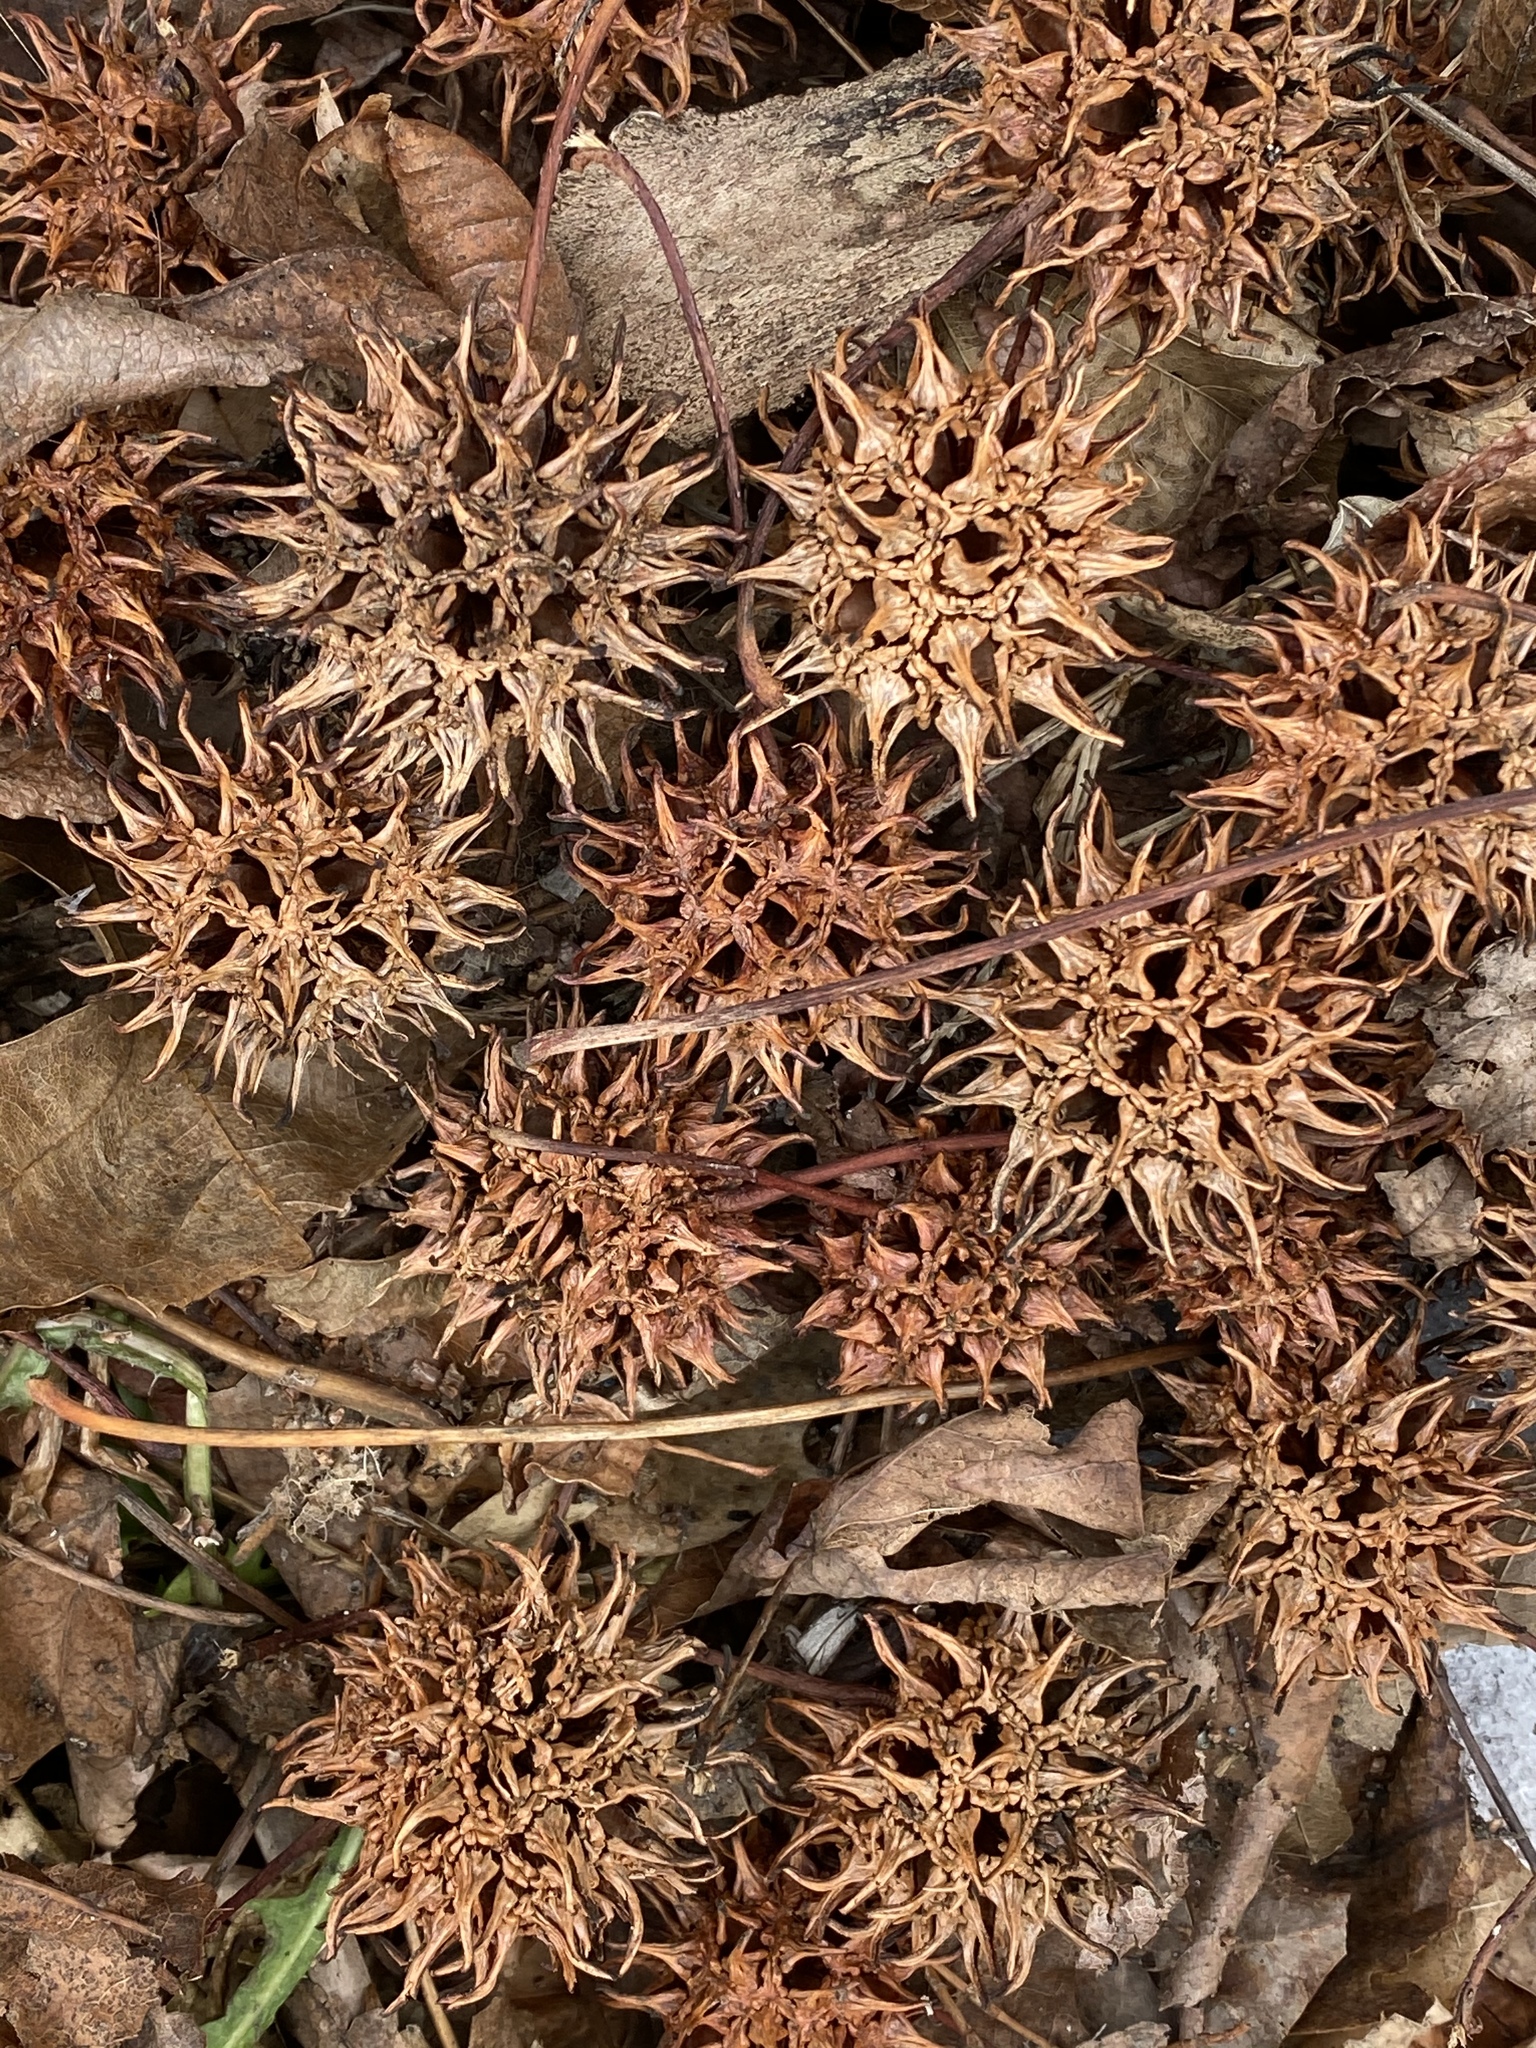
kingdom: Plantae
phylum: Tracheophyta
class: Magnoliopsida
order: Saxifragales
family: Altingiaceae
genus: Liquidambar
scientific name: Liquidambar styraciflua
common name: Sweet gum
